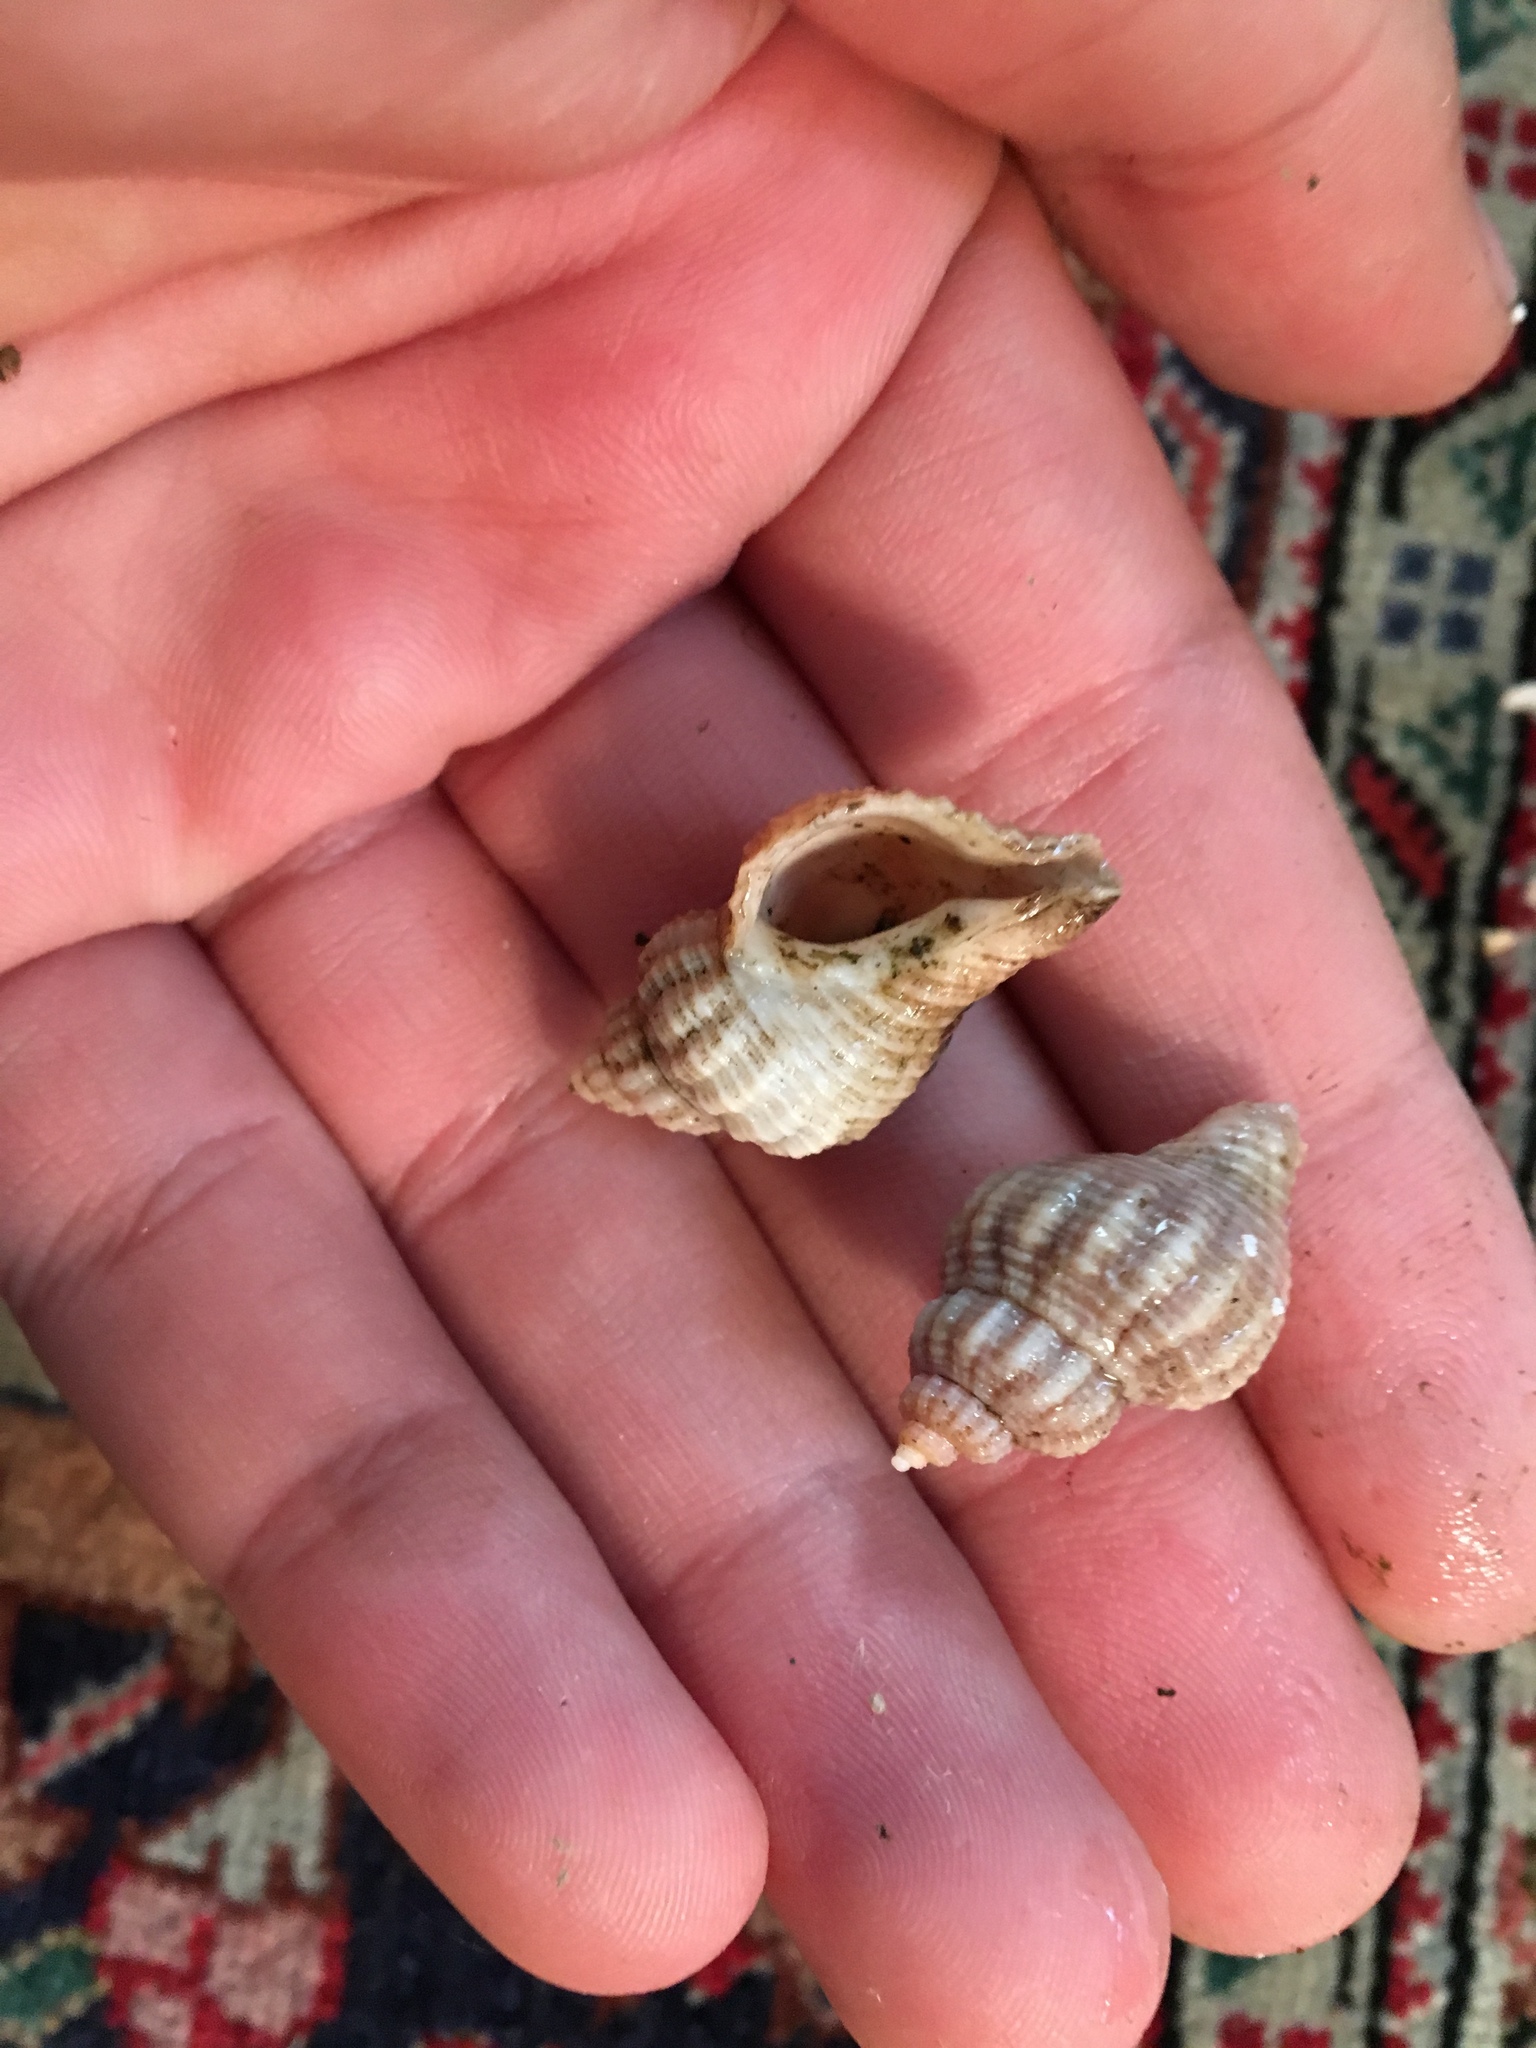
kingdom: Animalia
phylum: Mollusca
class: Gastropoda
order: Neogastropoda
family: Muricidae
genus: Urosalpinx
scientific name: Urosalpinx cinerea
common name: American sting winkle
